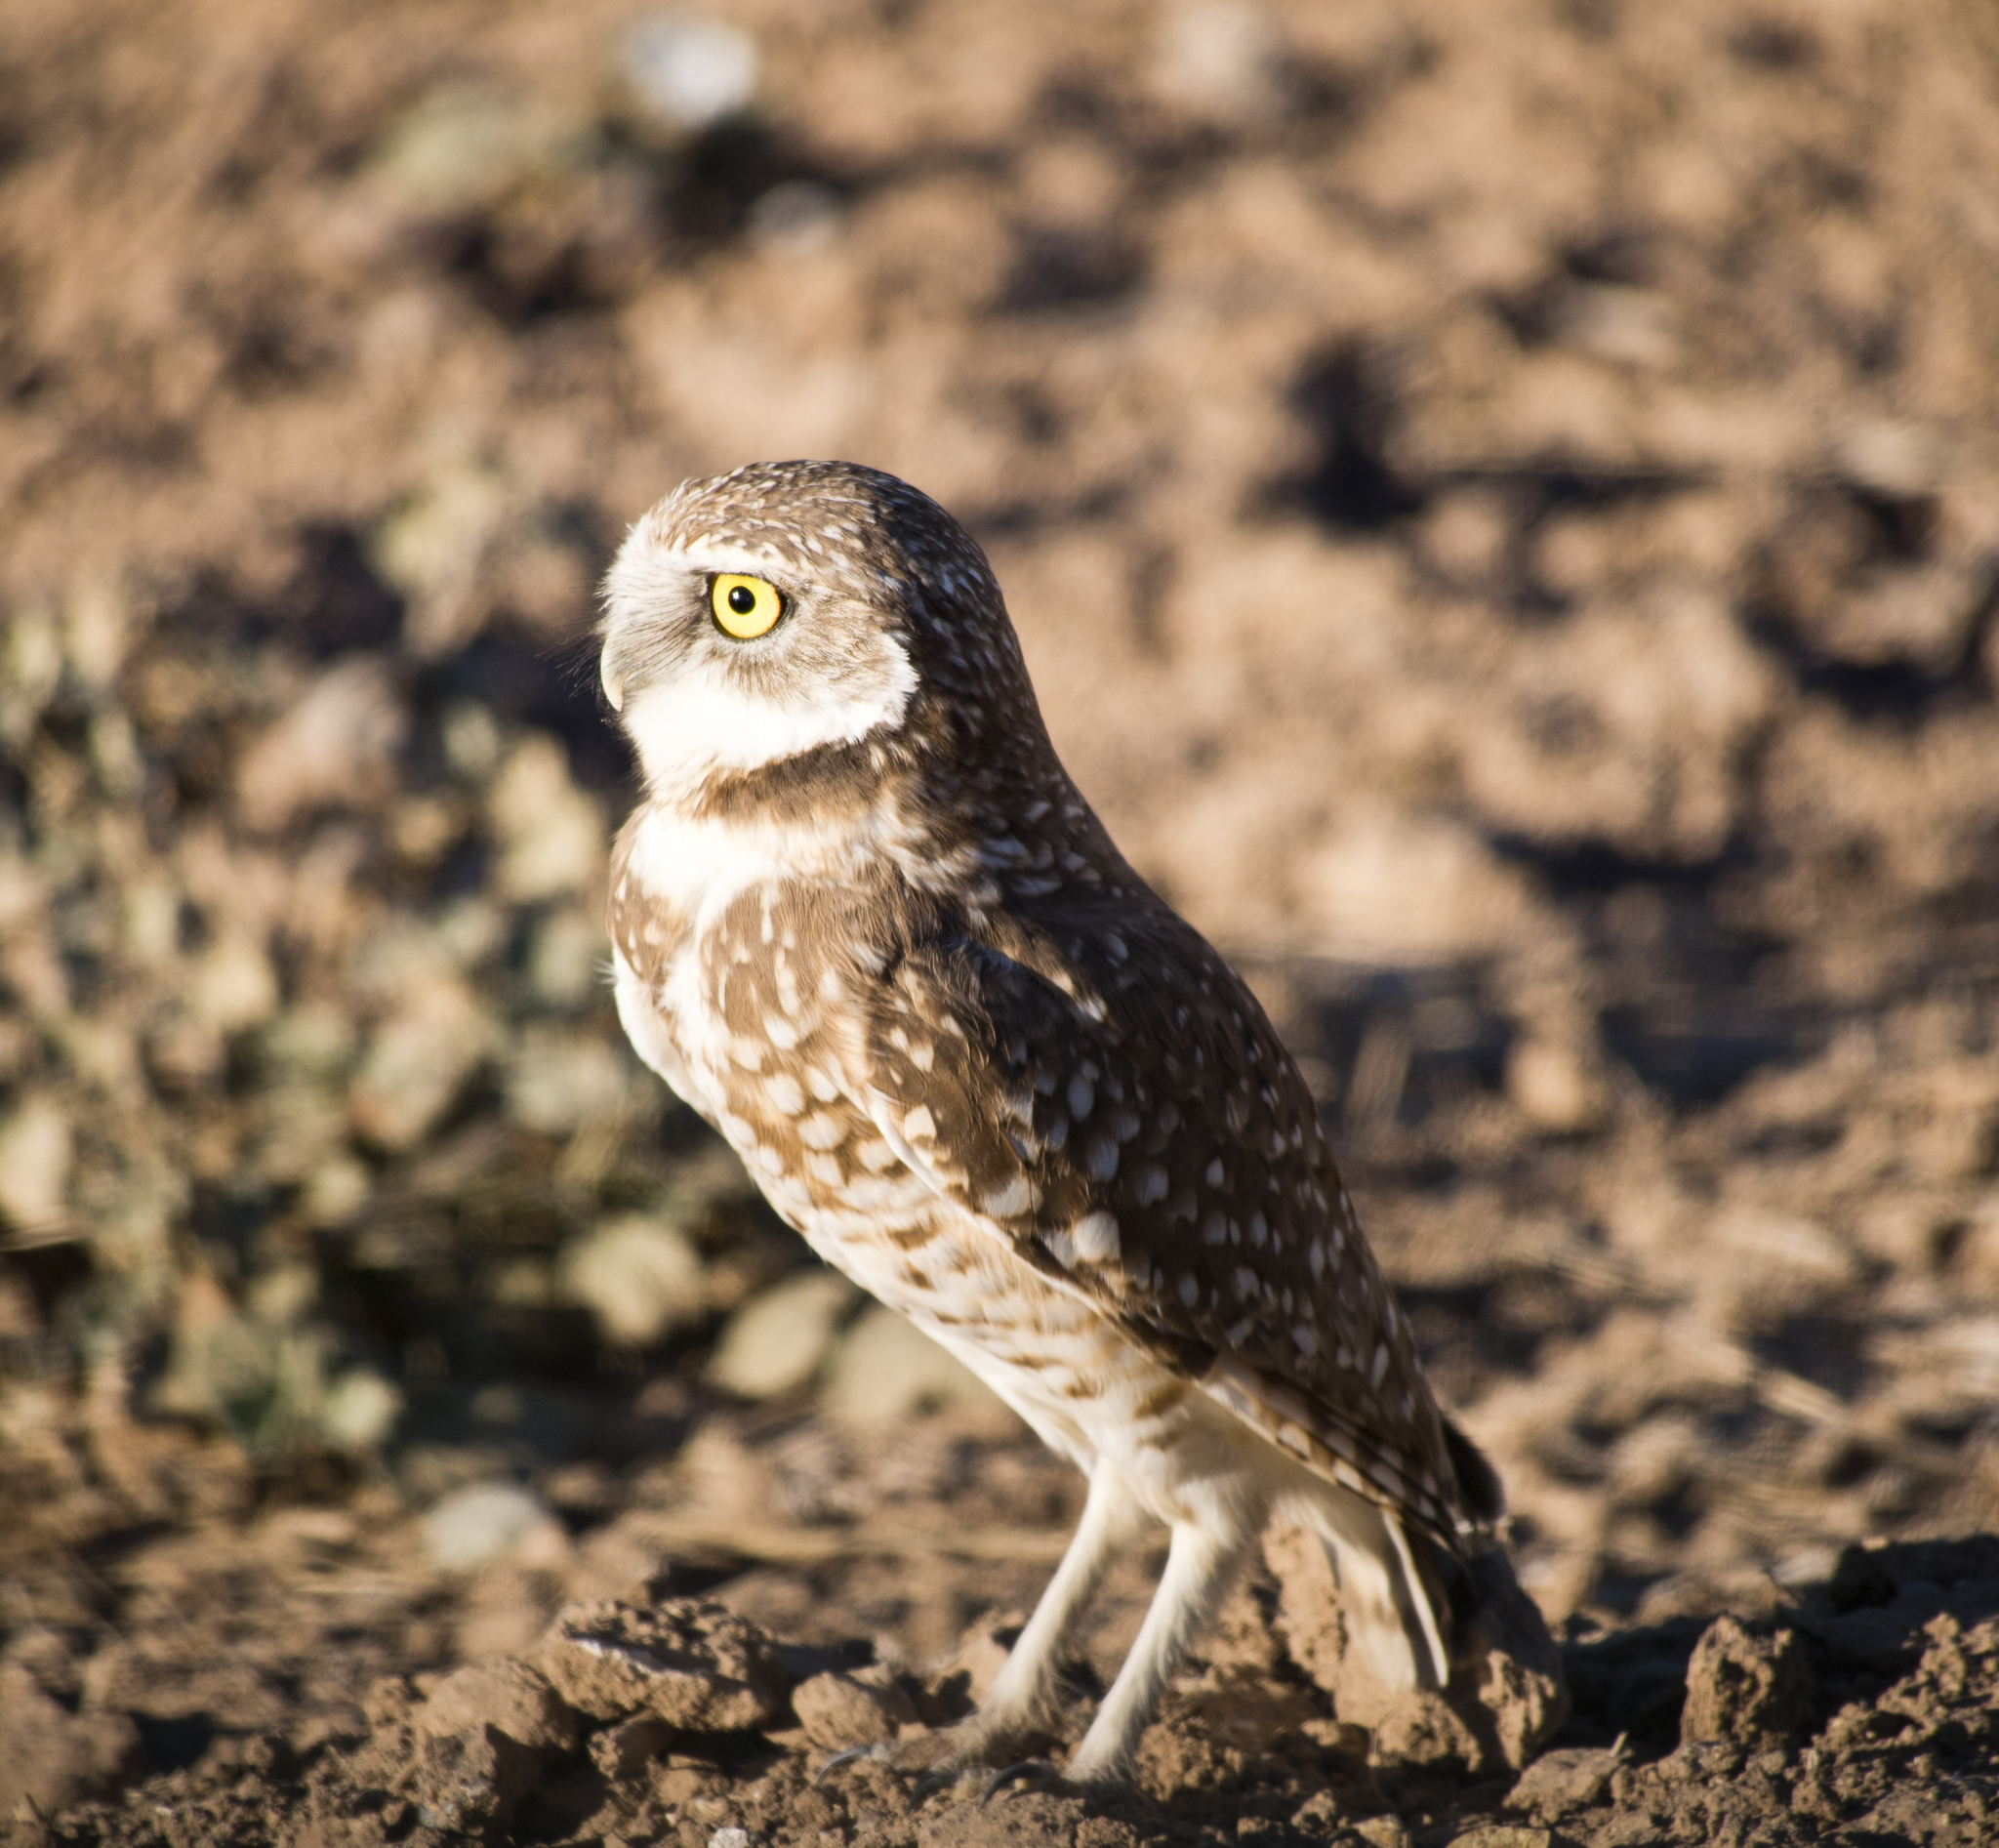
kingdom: Animalia
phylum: Chordata
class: Aves
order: Strigiformes
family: Strigidae
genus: Athene
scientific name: Athene cunicularia
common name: Burrowing owl
